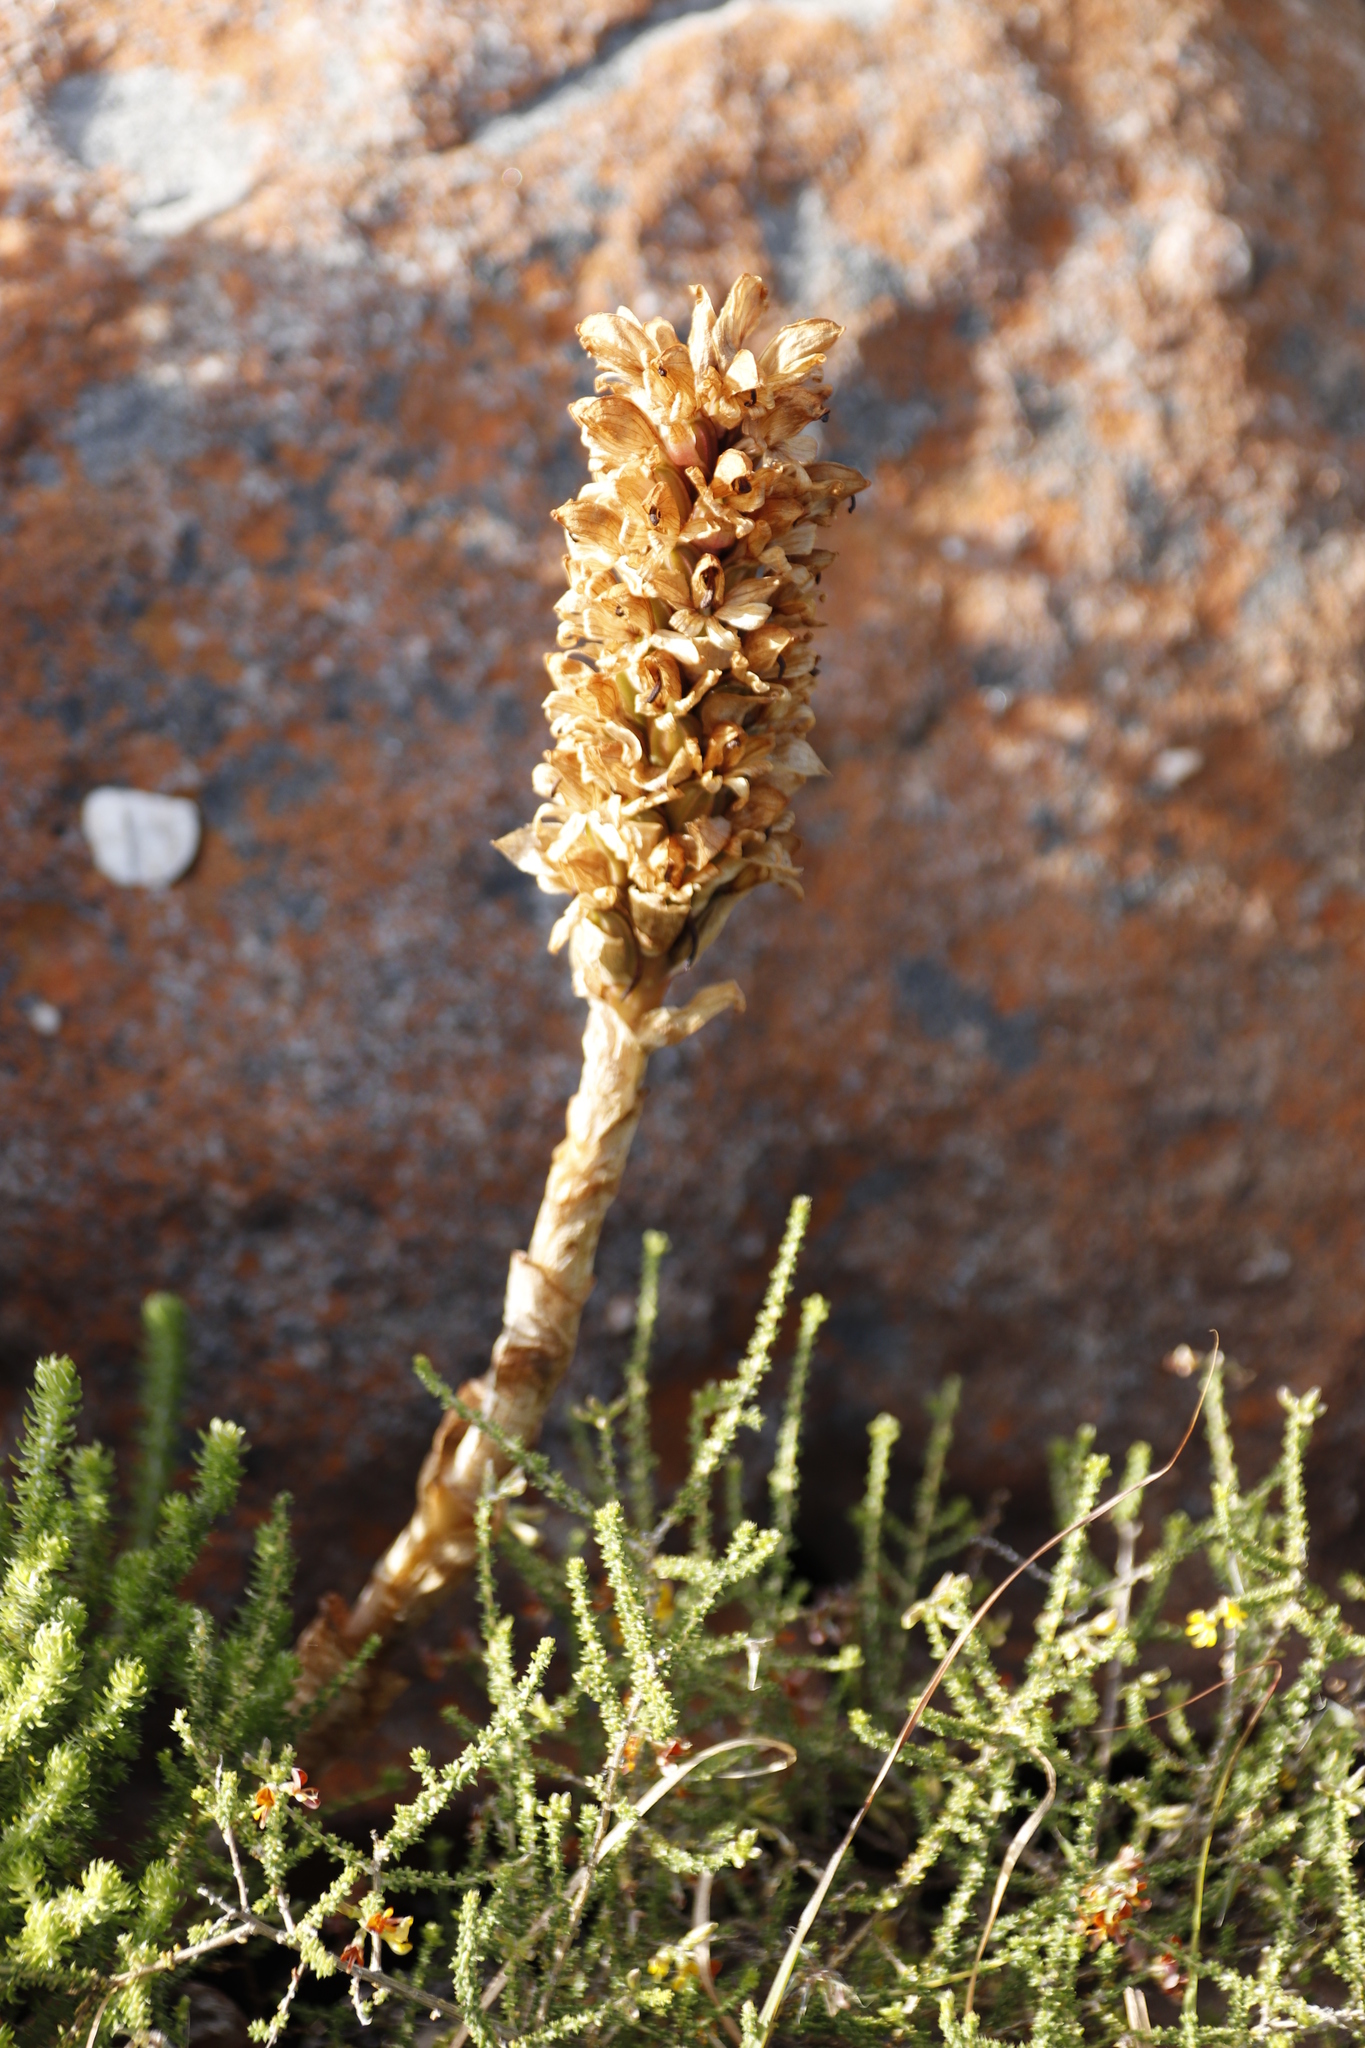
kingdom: Plantae
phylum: Tracheophyta
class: Liliopsida
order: Asparagales
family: Orchidaceae
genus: Satyrium
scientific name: Satyrium carneum
